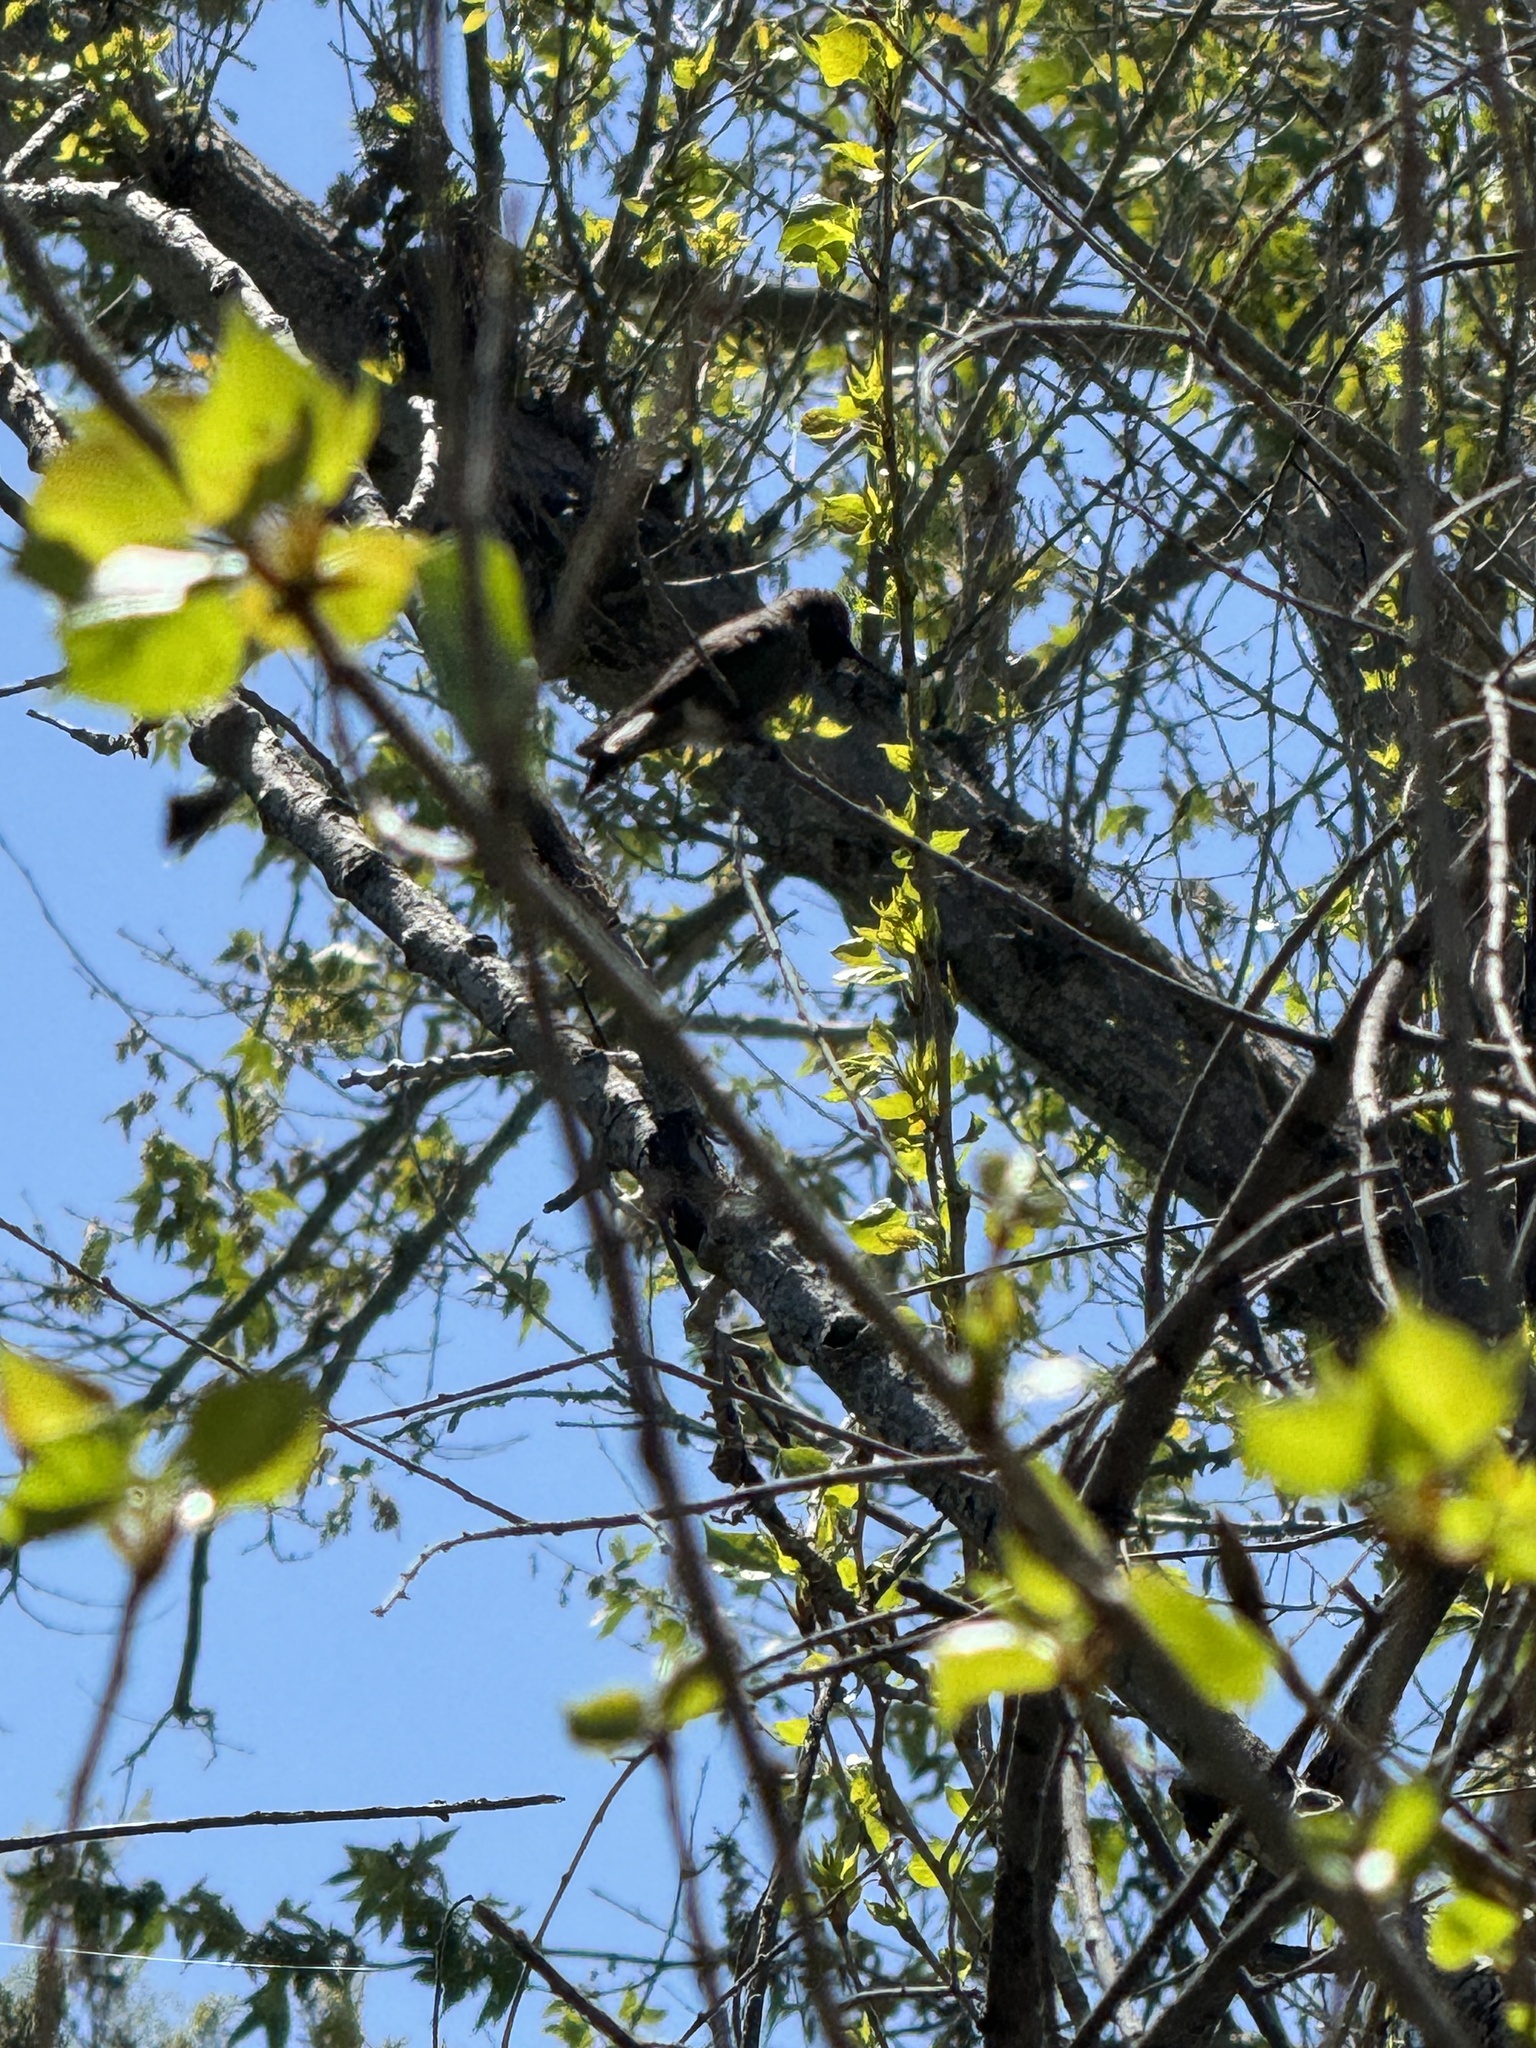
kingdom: Animalia
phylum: Chordata
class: Aves
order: Apodiformes
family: Trochilidae
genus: Archilochus
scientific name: Archilochus alexandri
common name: Black-chinned hummingbird
